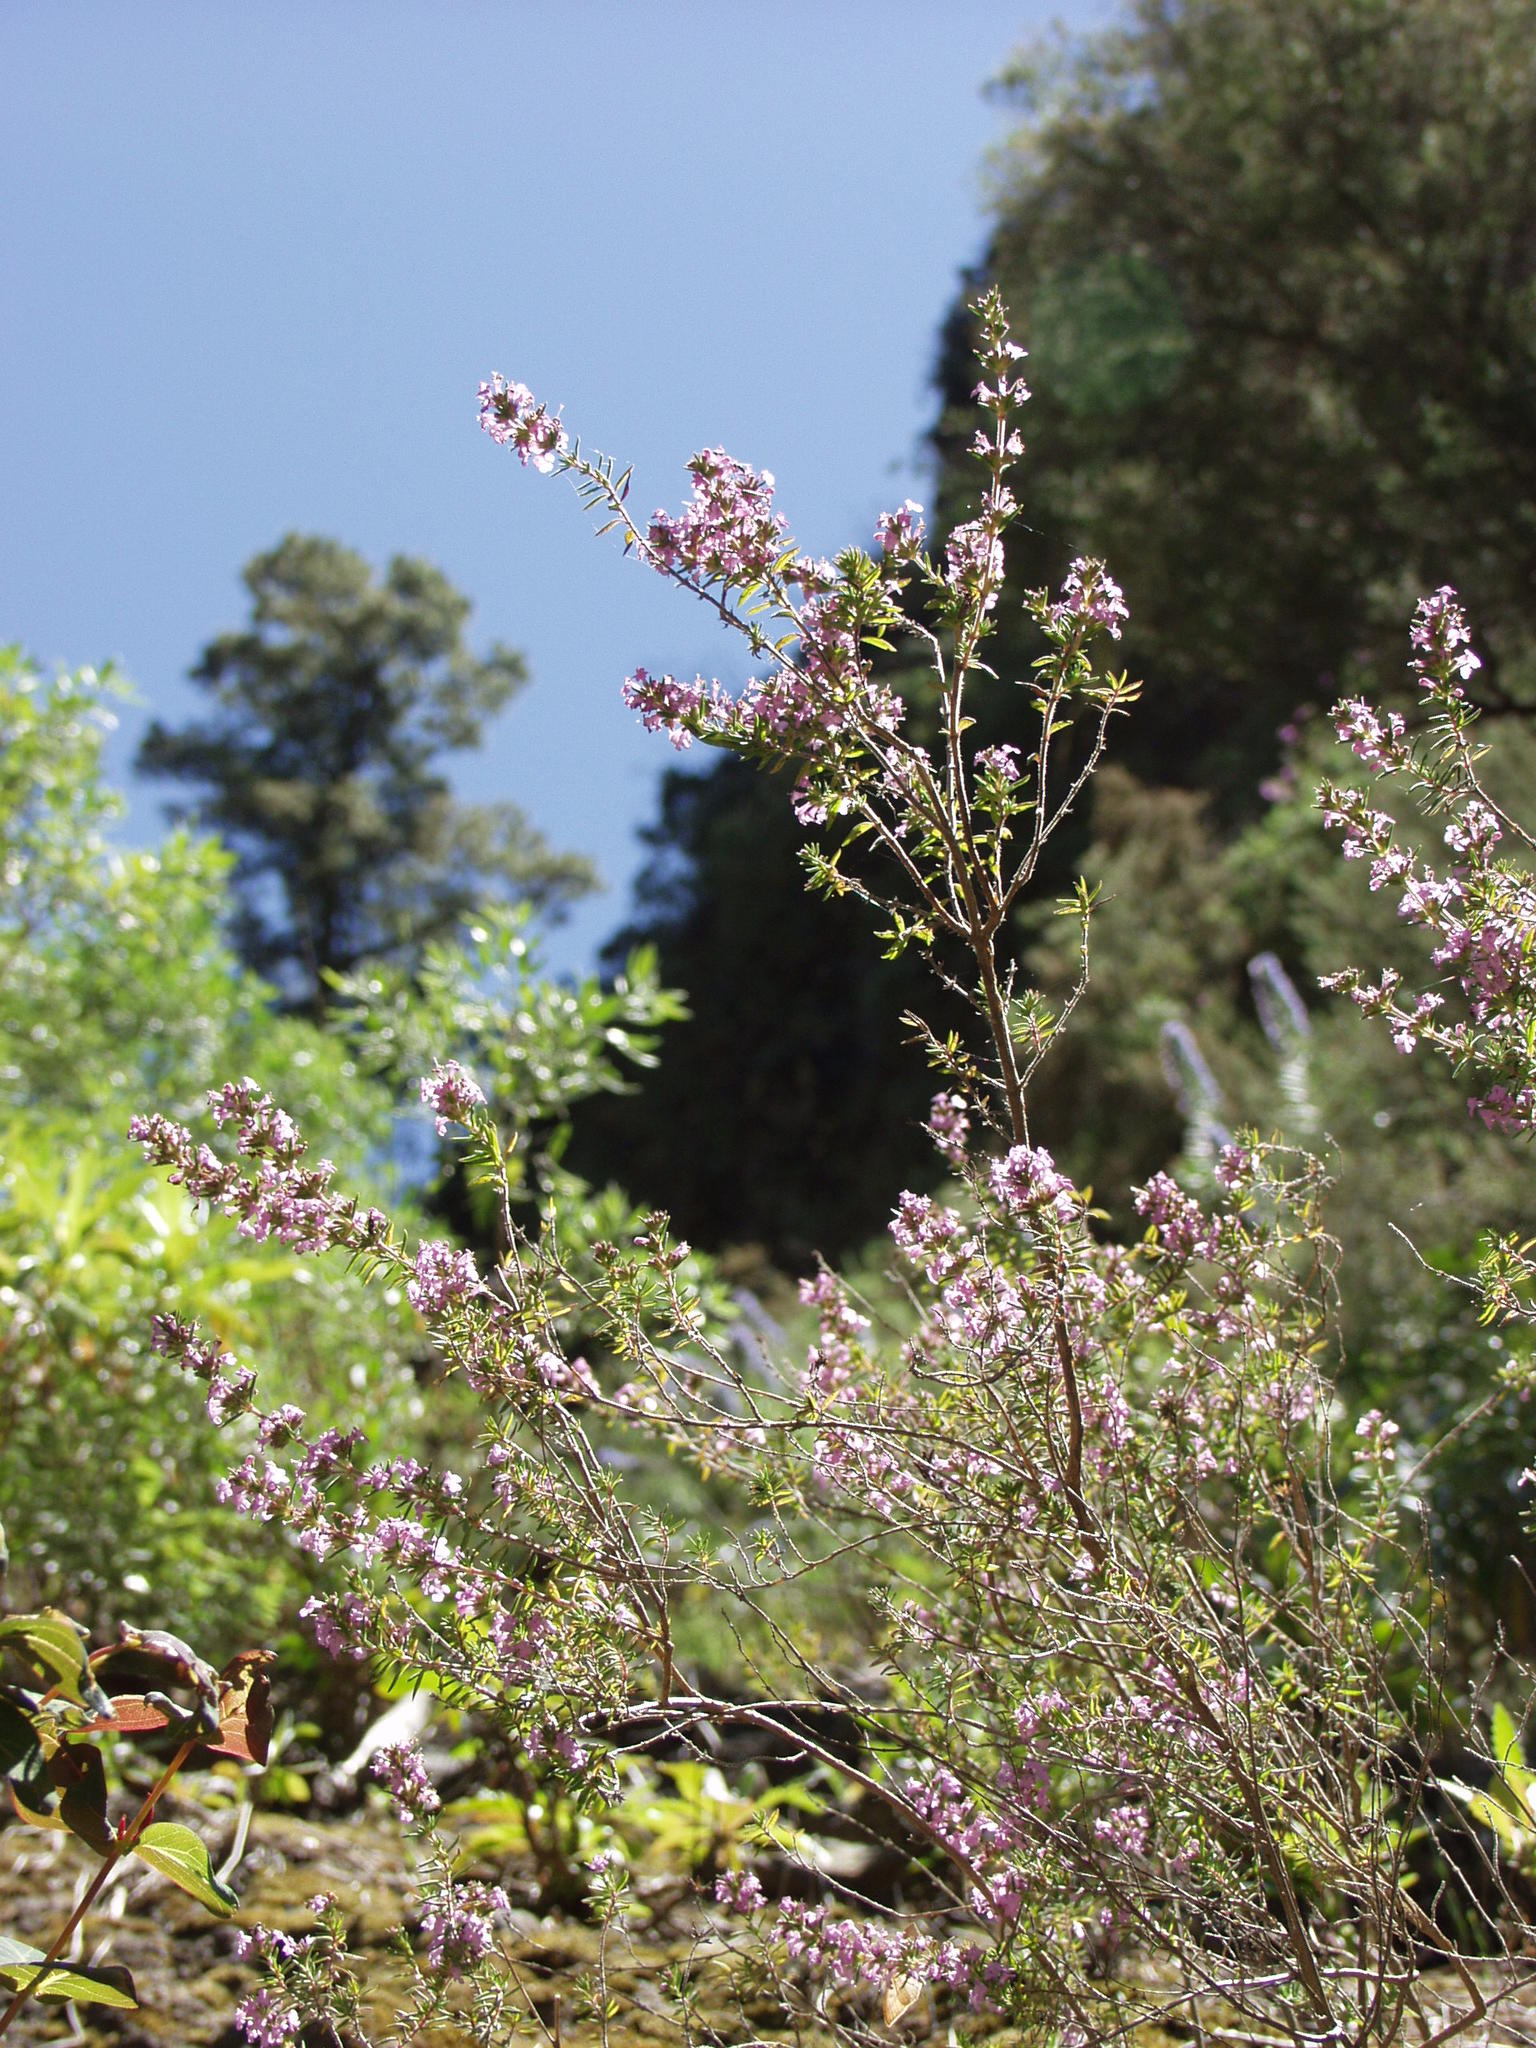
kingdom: Plantae
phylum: Tracheophyta
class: Magnoliopsida
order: Lamiales
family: Lamiaceae
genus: Micromeria
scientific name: Micromeria herpyllomorpha
